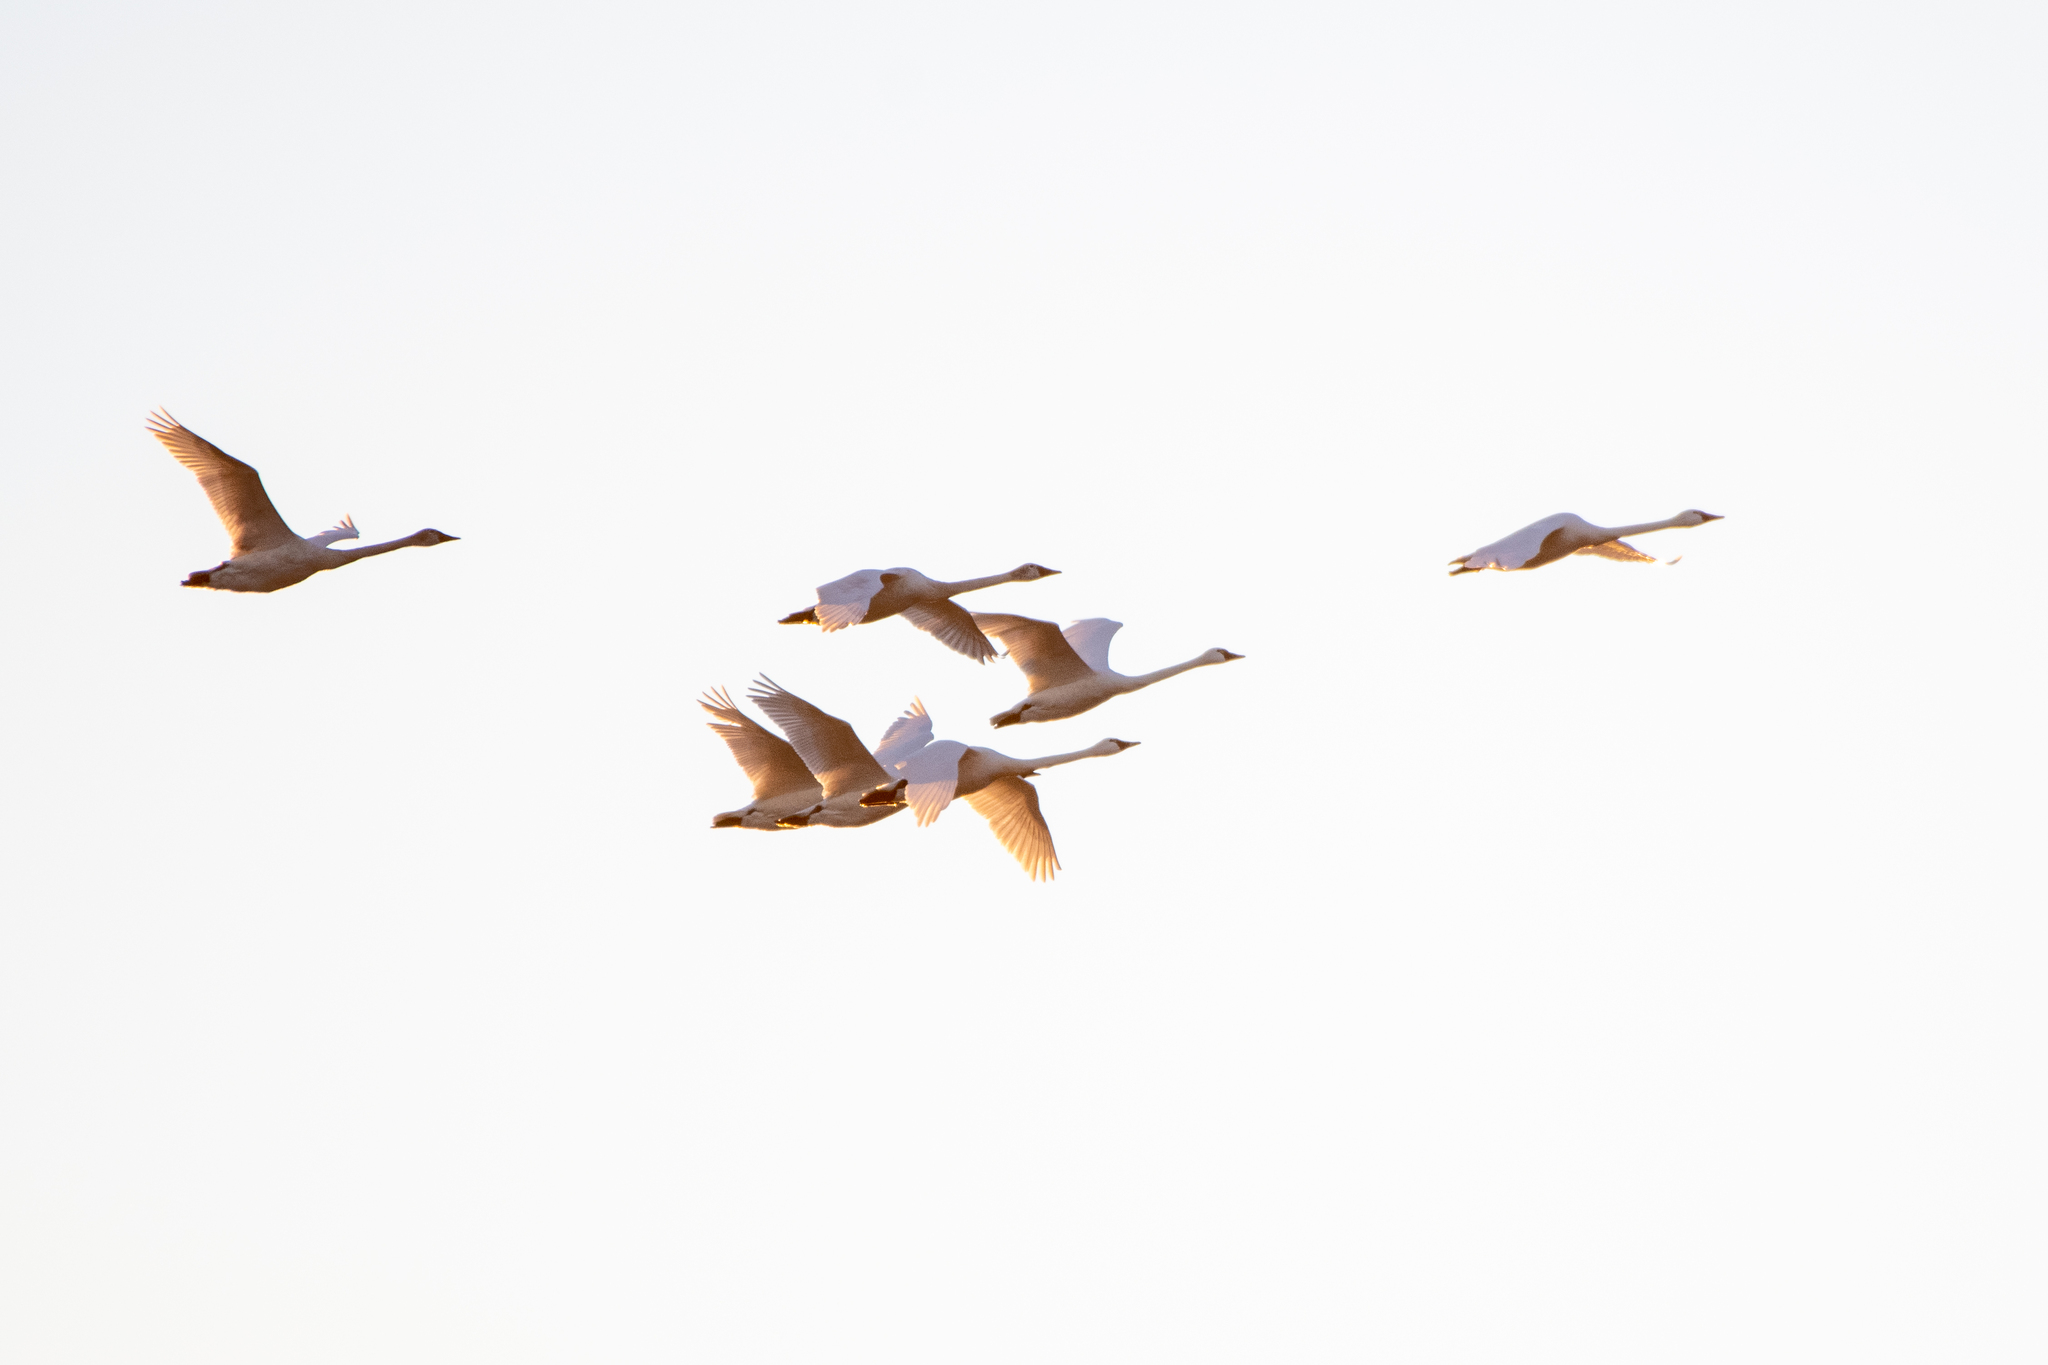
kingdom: Animalia
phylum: Chordata
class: Aves
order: Anseriformes
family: Anatidae
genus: Cygnus
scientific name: Cygnus columbianus
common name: Tundra swan
